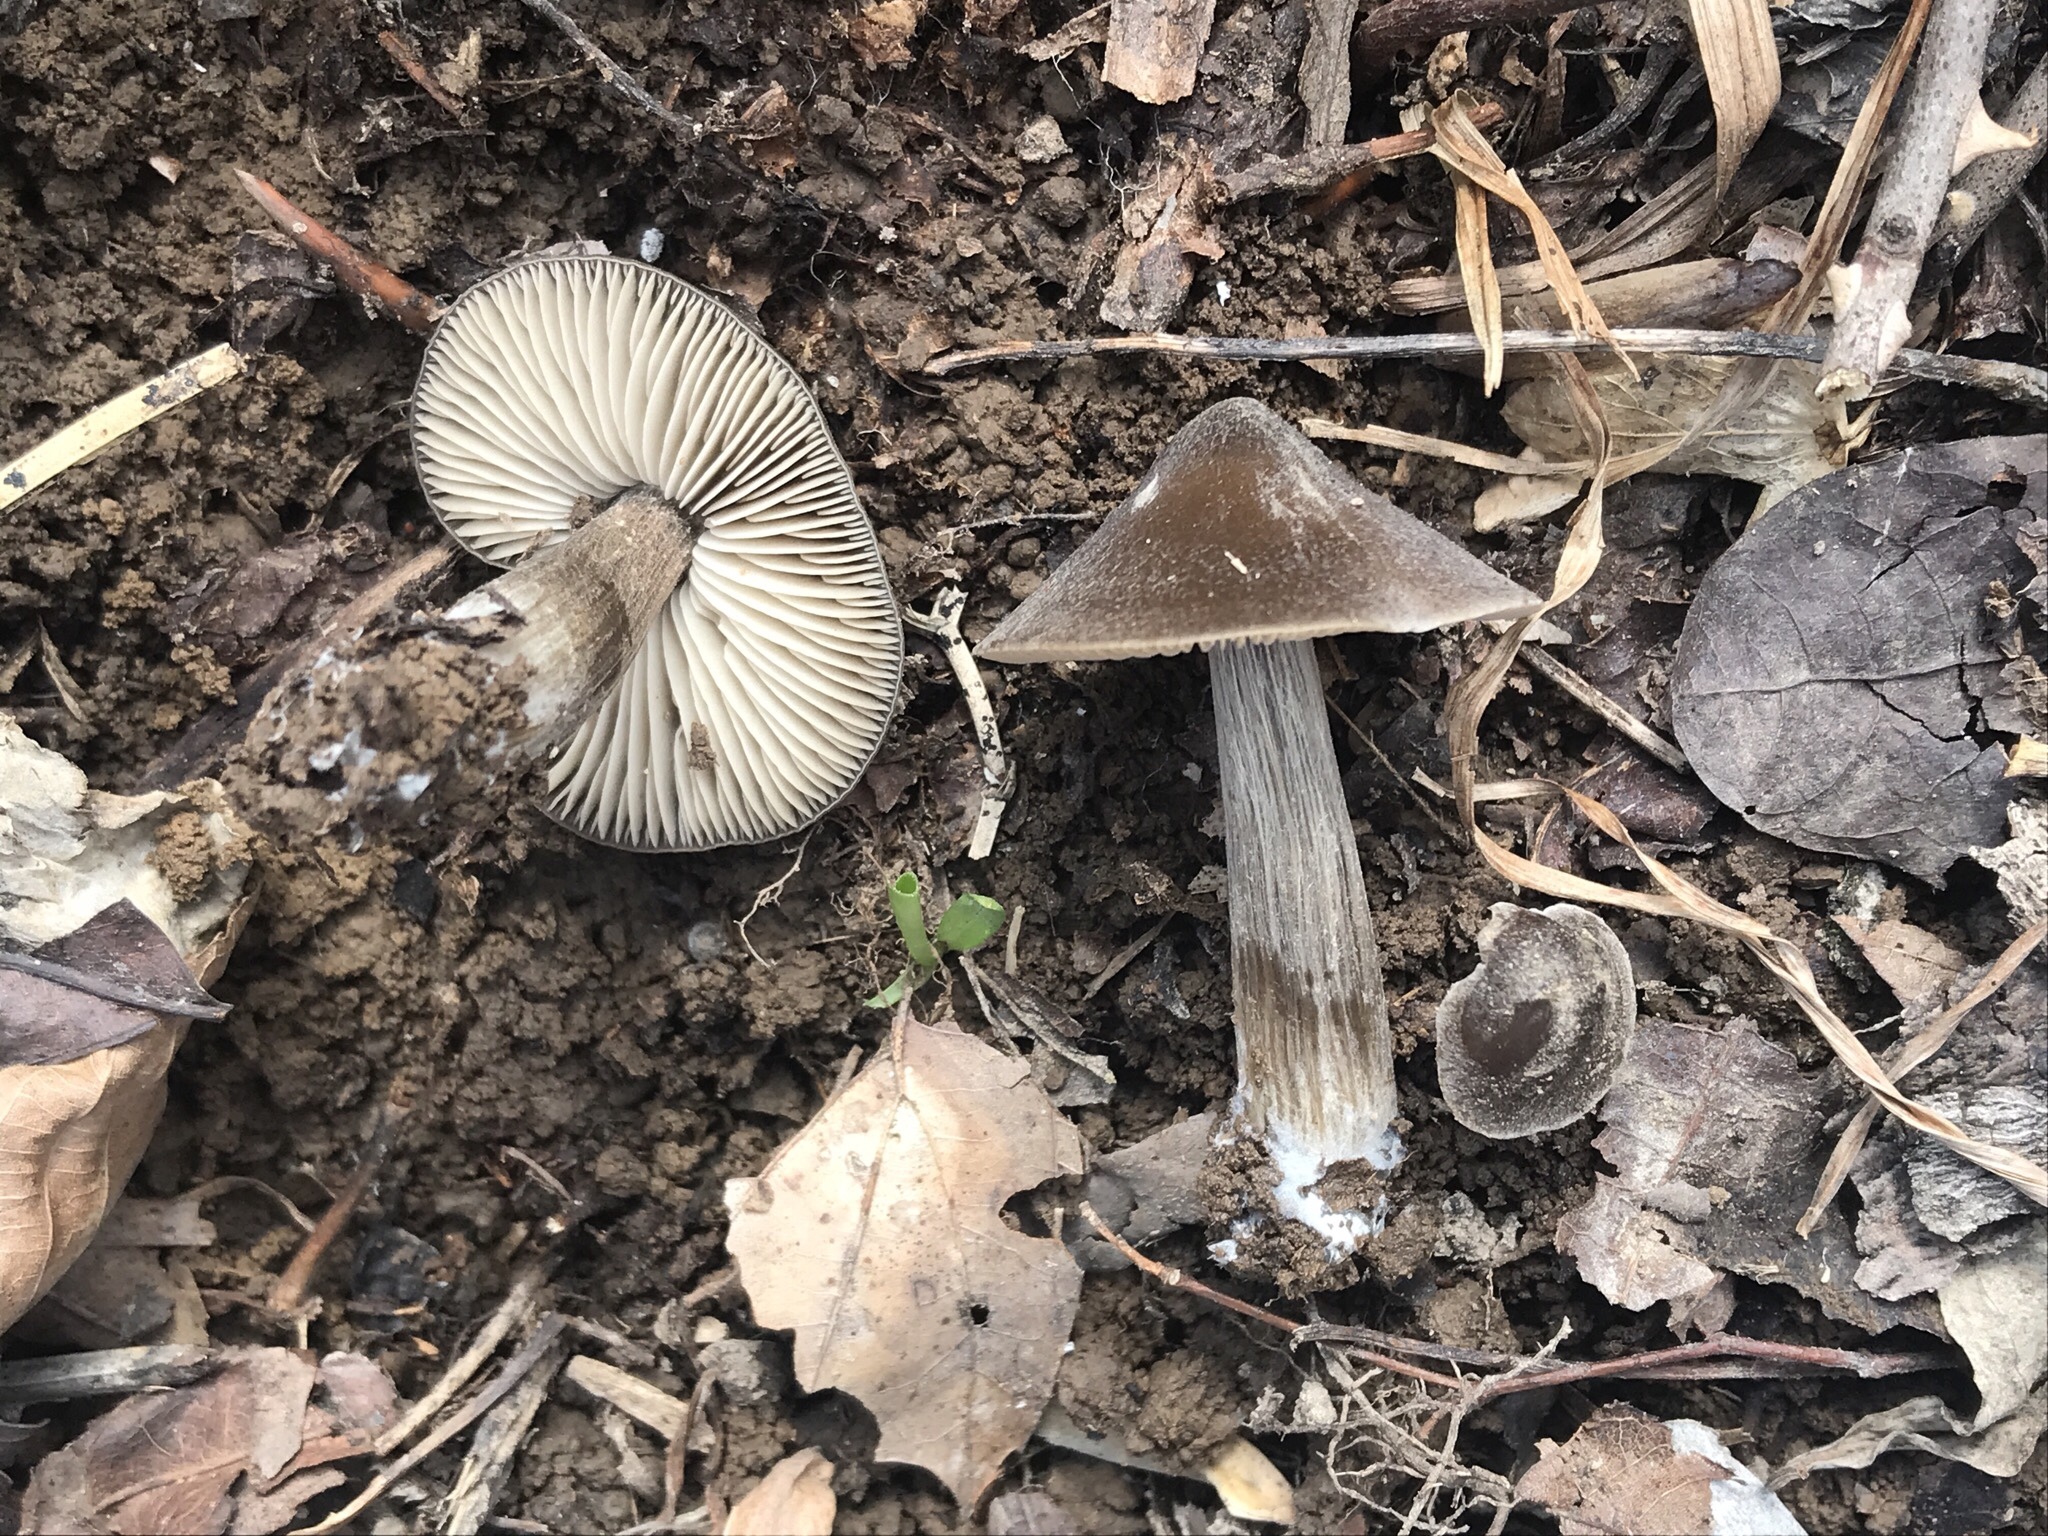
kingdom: Fungi
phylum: Basidiomycota
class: Agaricomycetes
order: Agaricales
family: Entolomataceae
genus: Entoloma
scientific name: Entoloma vernum
